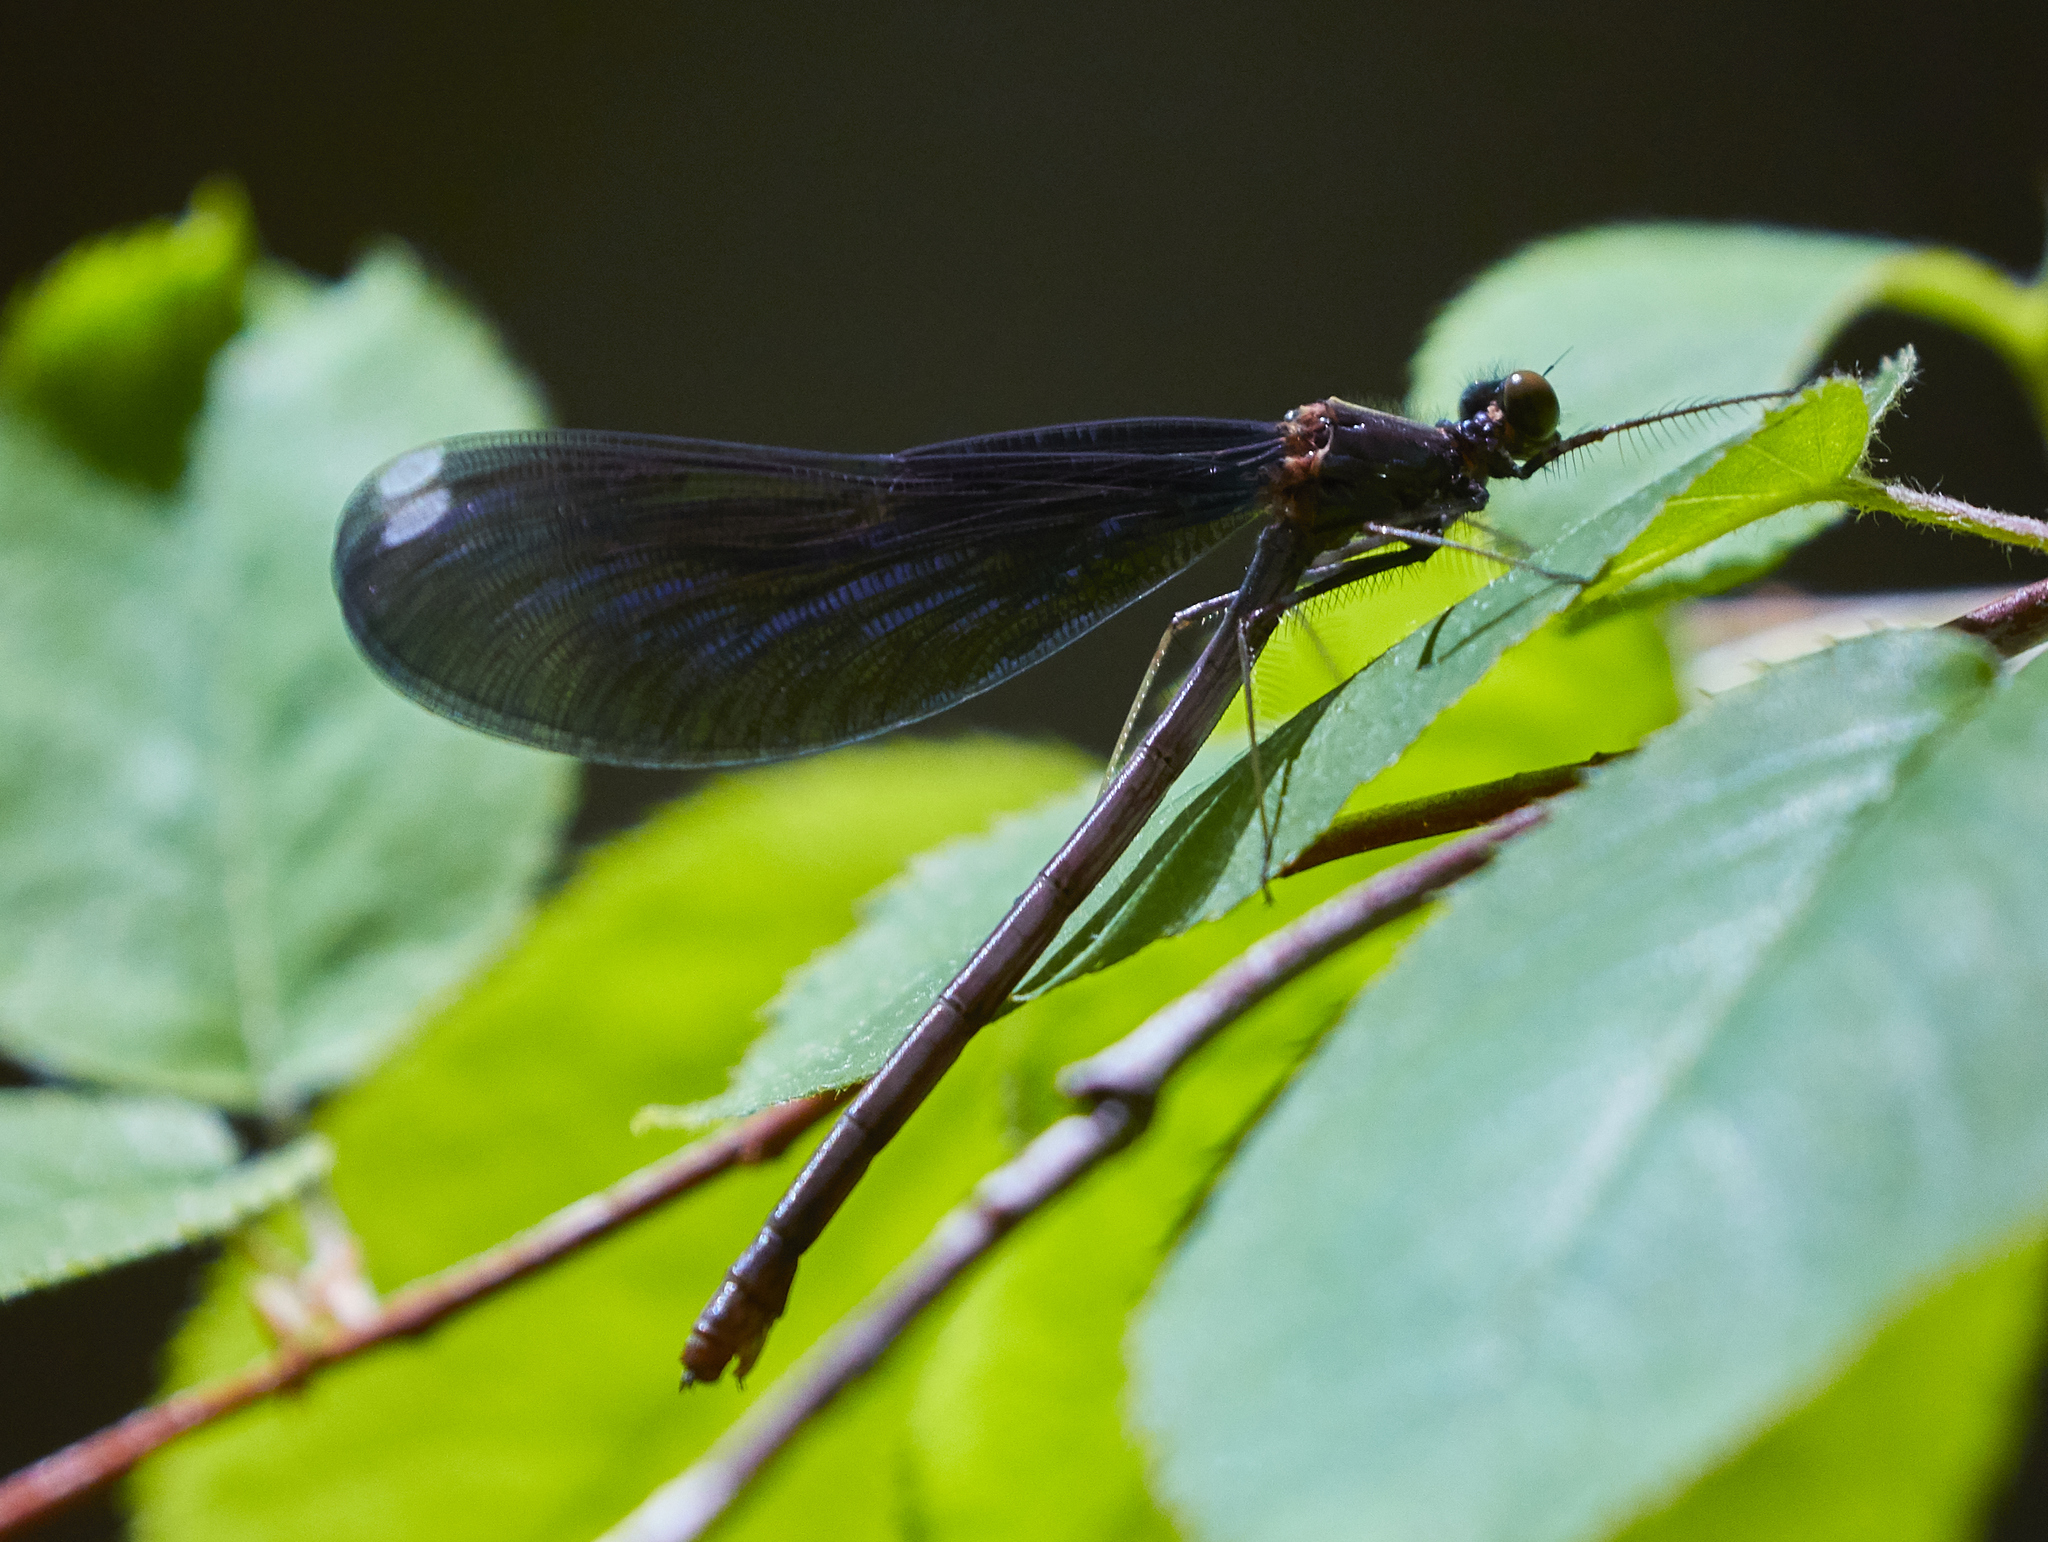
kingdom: Animalia
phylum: Arthropoda
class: Insecta
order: Odonata
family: Calopterygidae
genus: Calopteryx
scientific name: Calopteryx maculata
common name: Ebony jewelwing
